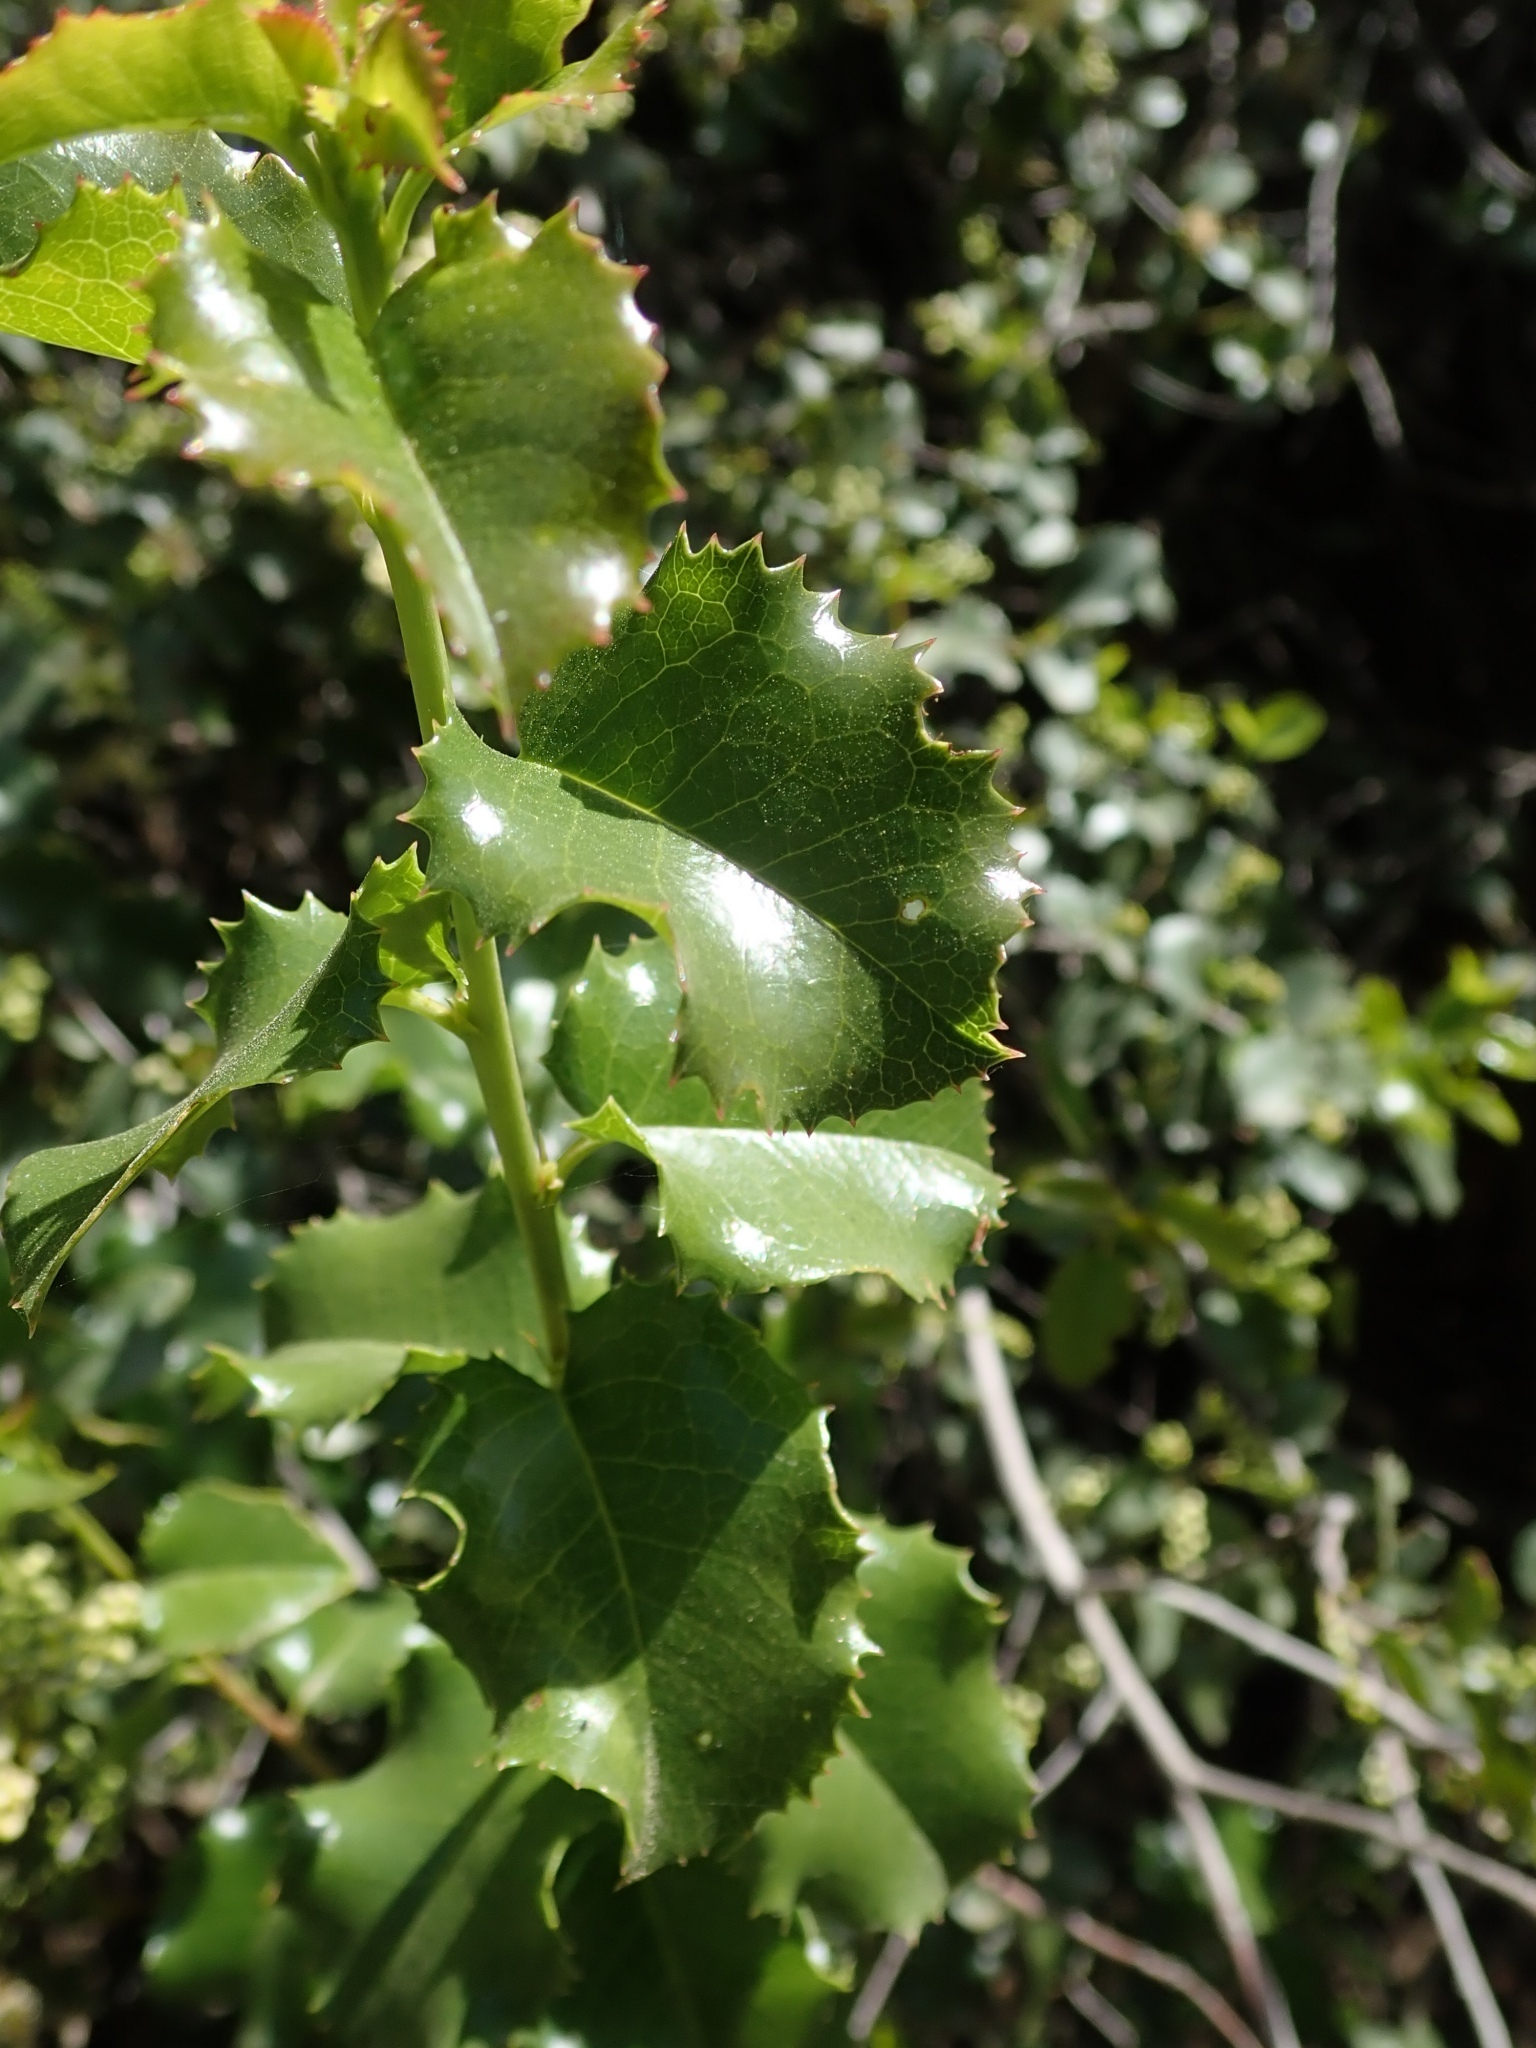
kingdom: Plantae
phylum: Tracheophyta
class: Magnoliopsida
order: Rosales
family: Rosaceae
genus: Prunus
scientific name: Prunus ilicifolia
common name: Hollyleaf cherry
